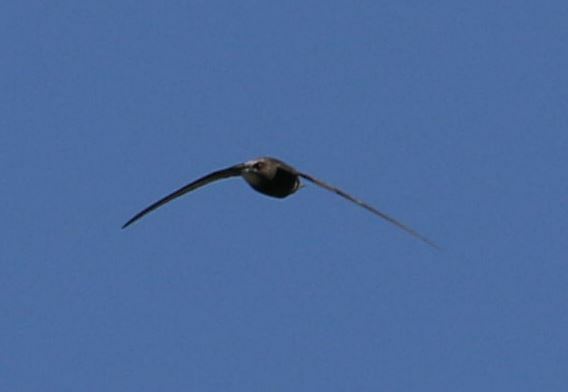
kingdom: Animalia
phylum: Chordata
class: Aves
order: Apodiformes
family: Apodidae
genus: Apus
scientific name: Apus apus
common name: Common swift
